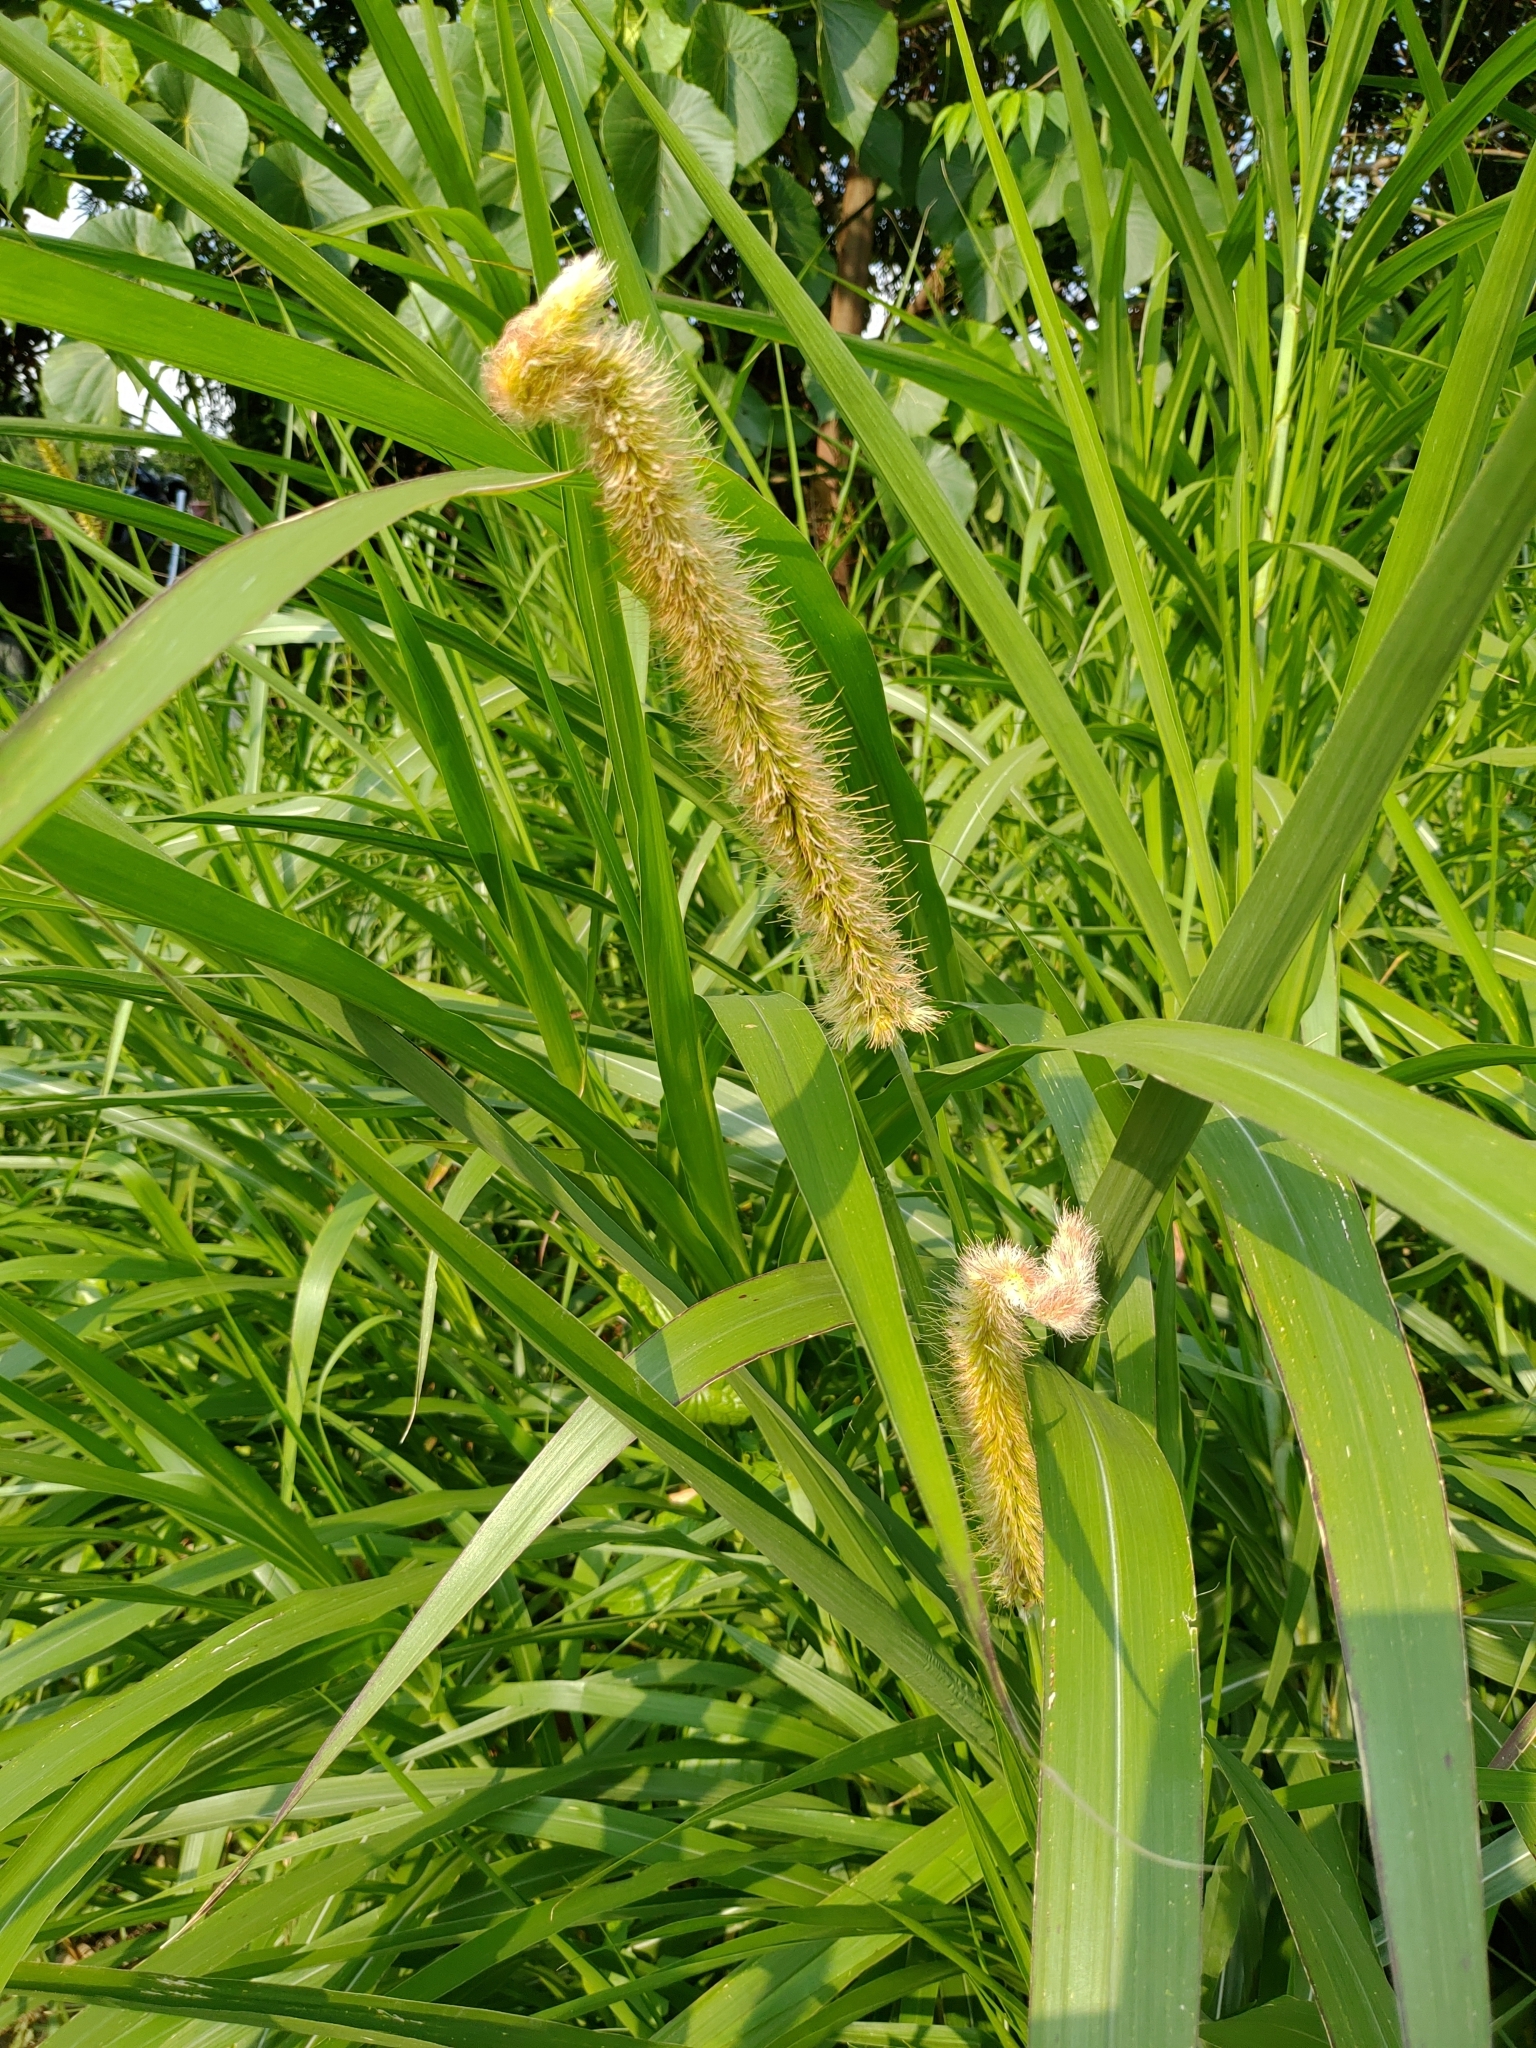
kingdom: Plantae
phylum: Tracheophyta
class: Liliopsida
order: Poales
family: Poaceae
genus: Cenchrus
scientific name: Cenchrus purpureus
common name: Elephant grass
